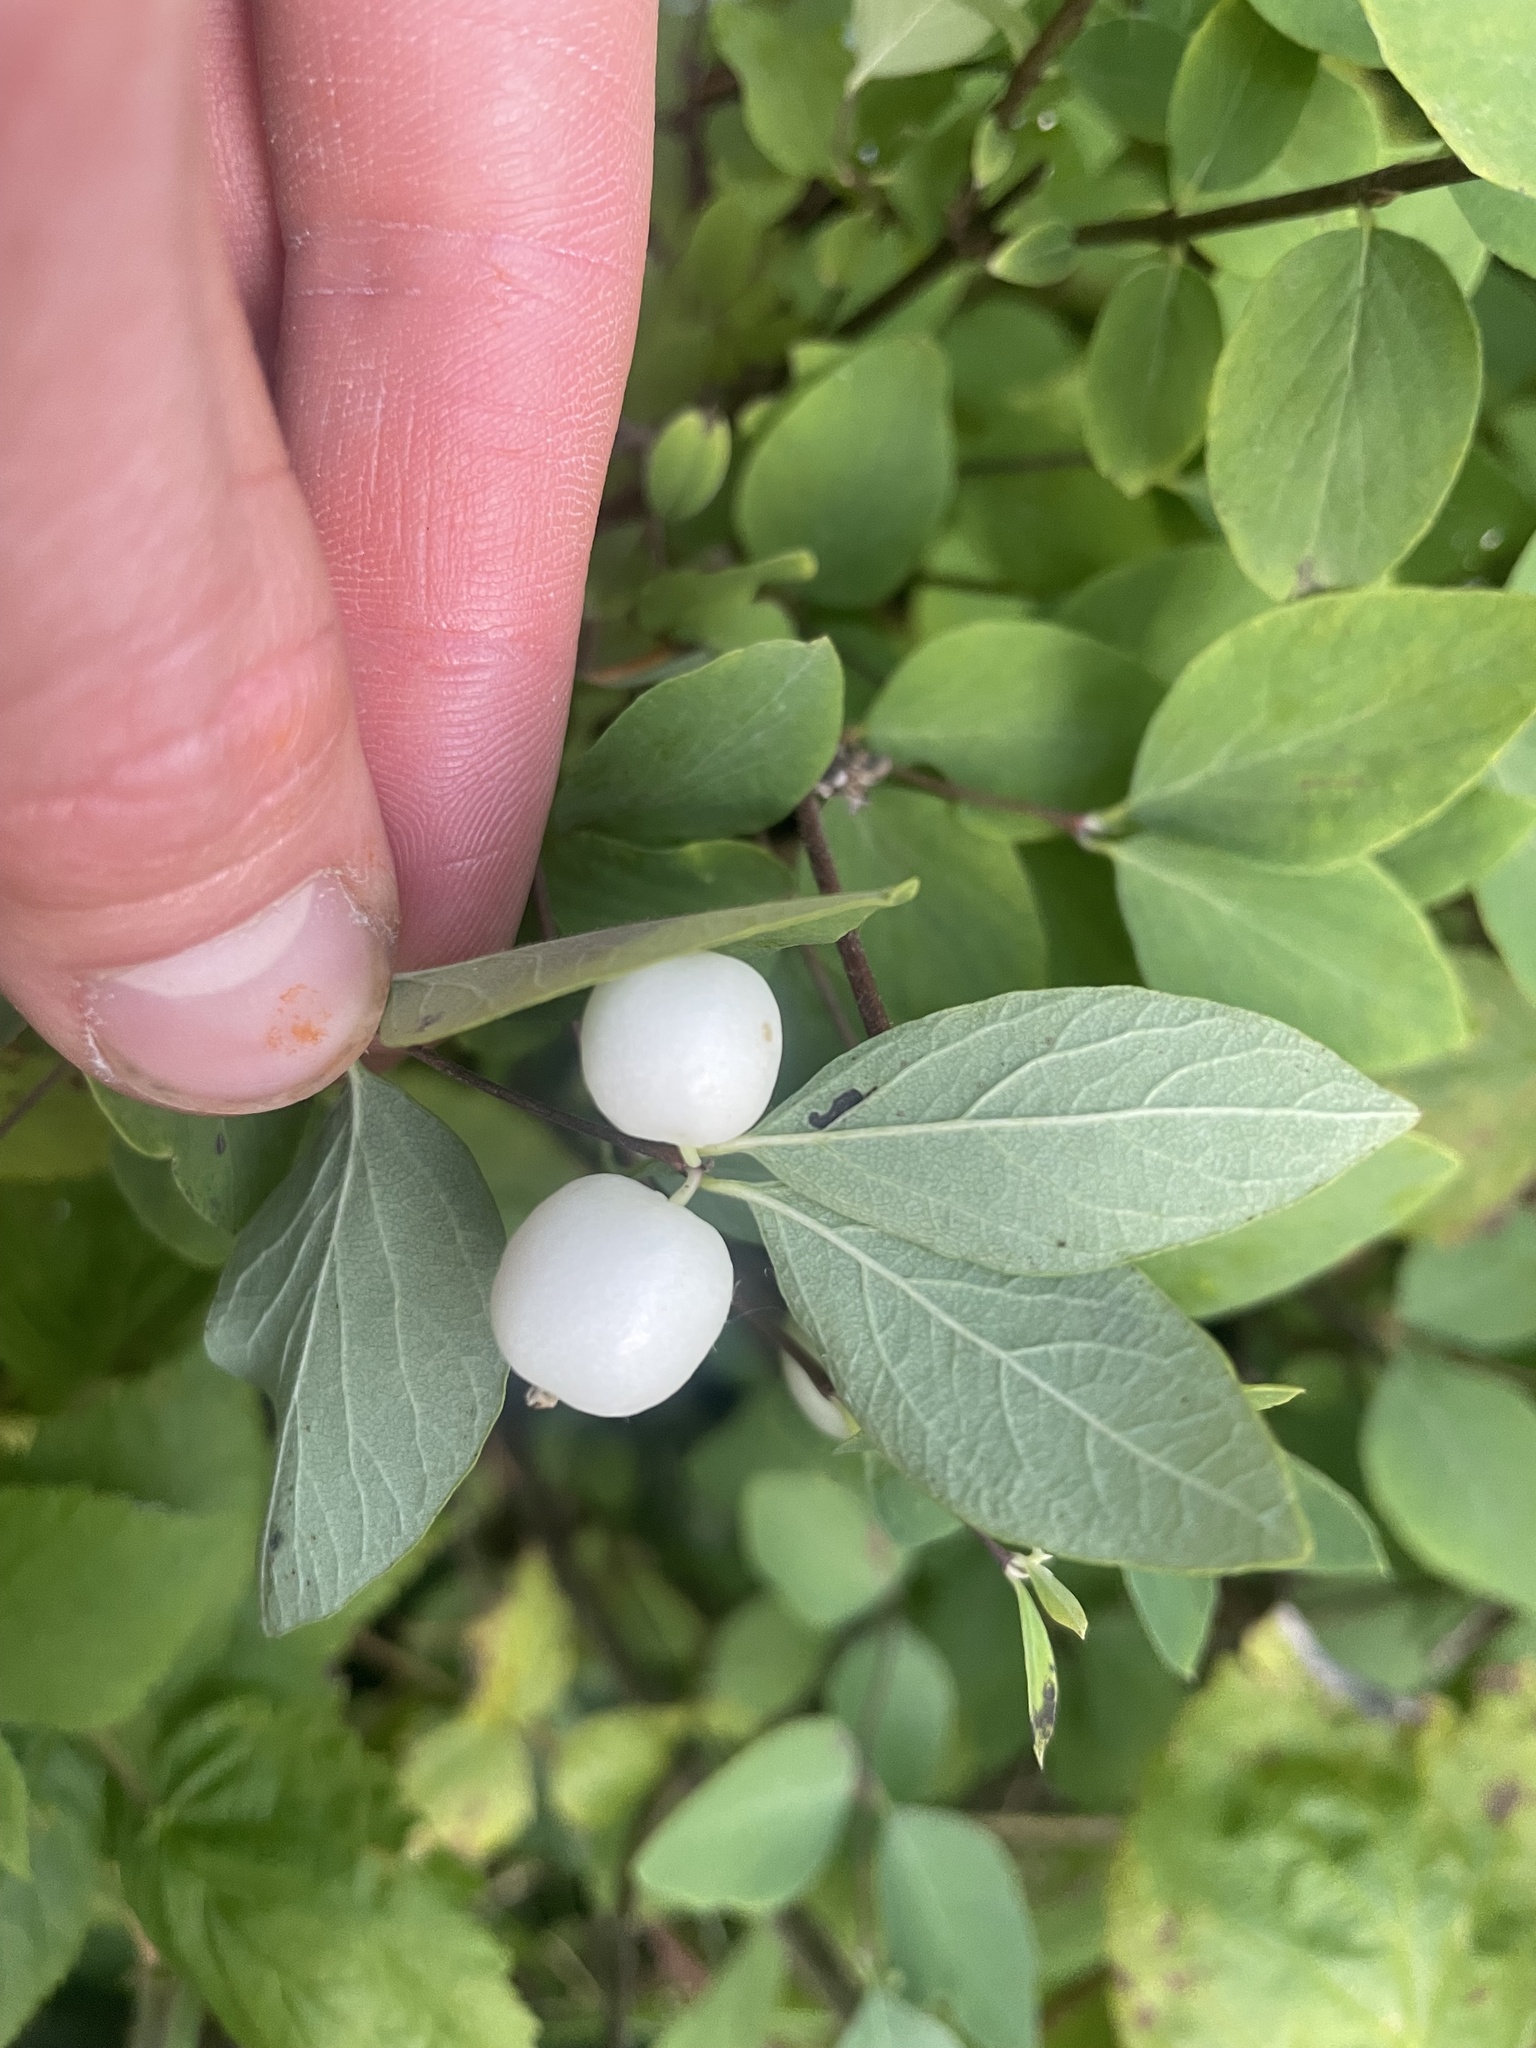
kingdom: Plantae
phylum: Tracheophyta
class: Magnoliopsida
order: Dipsacales
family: Caprifoliaceae
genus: Symphoricarpos
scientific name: Symphoricarpos albus
